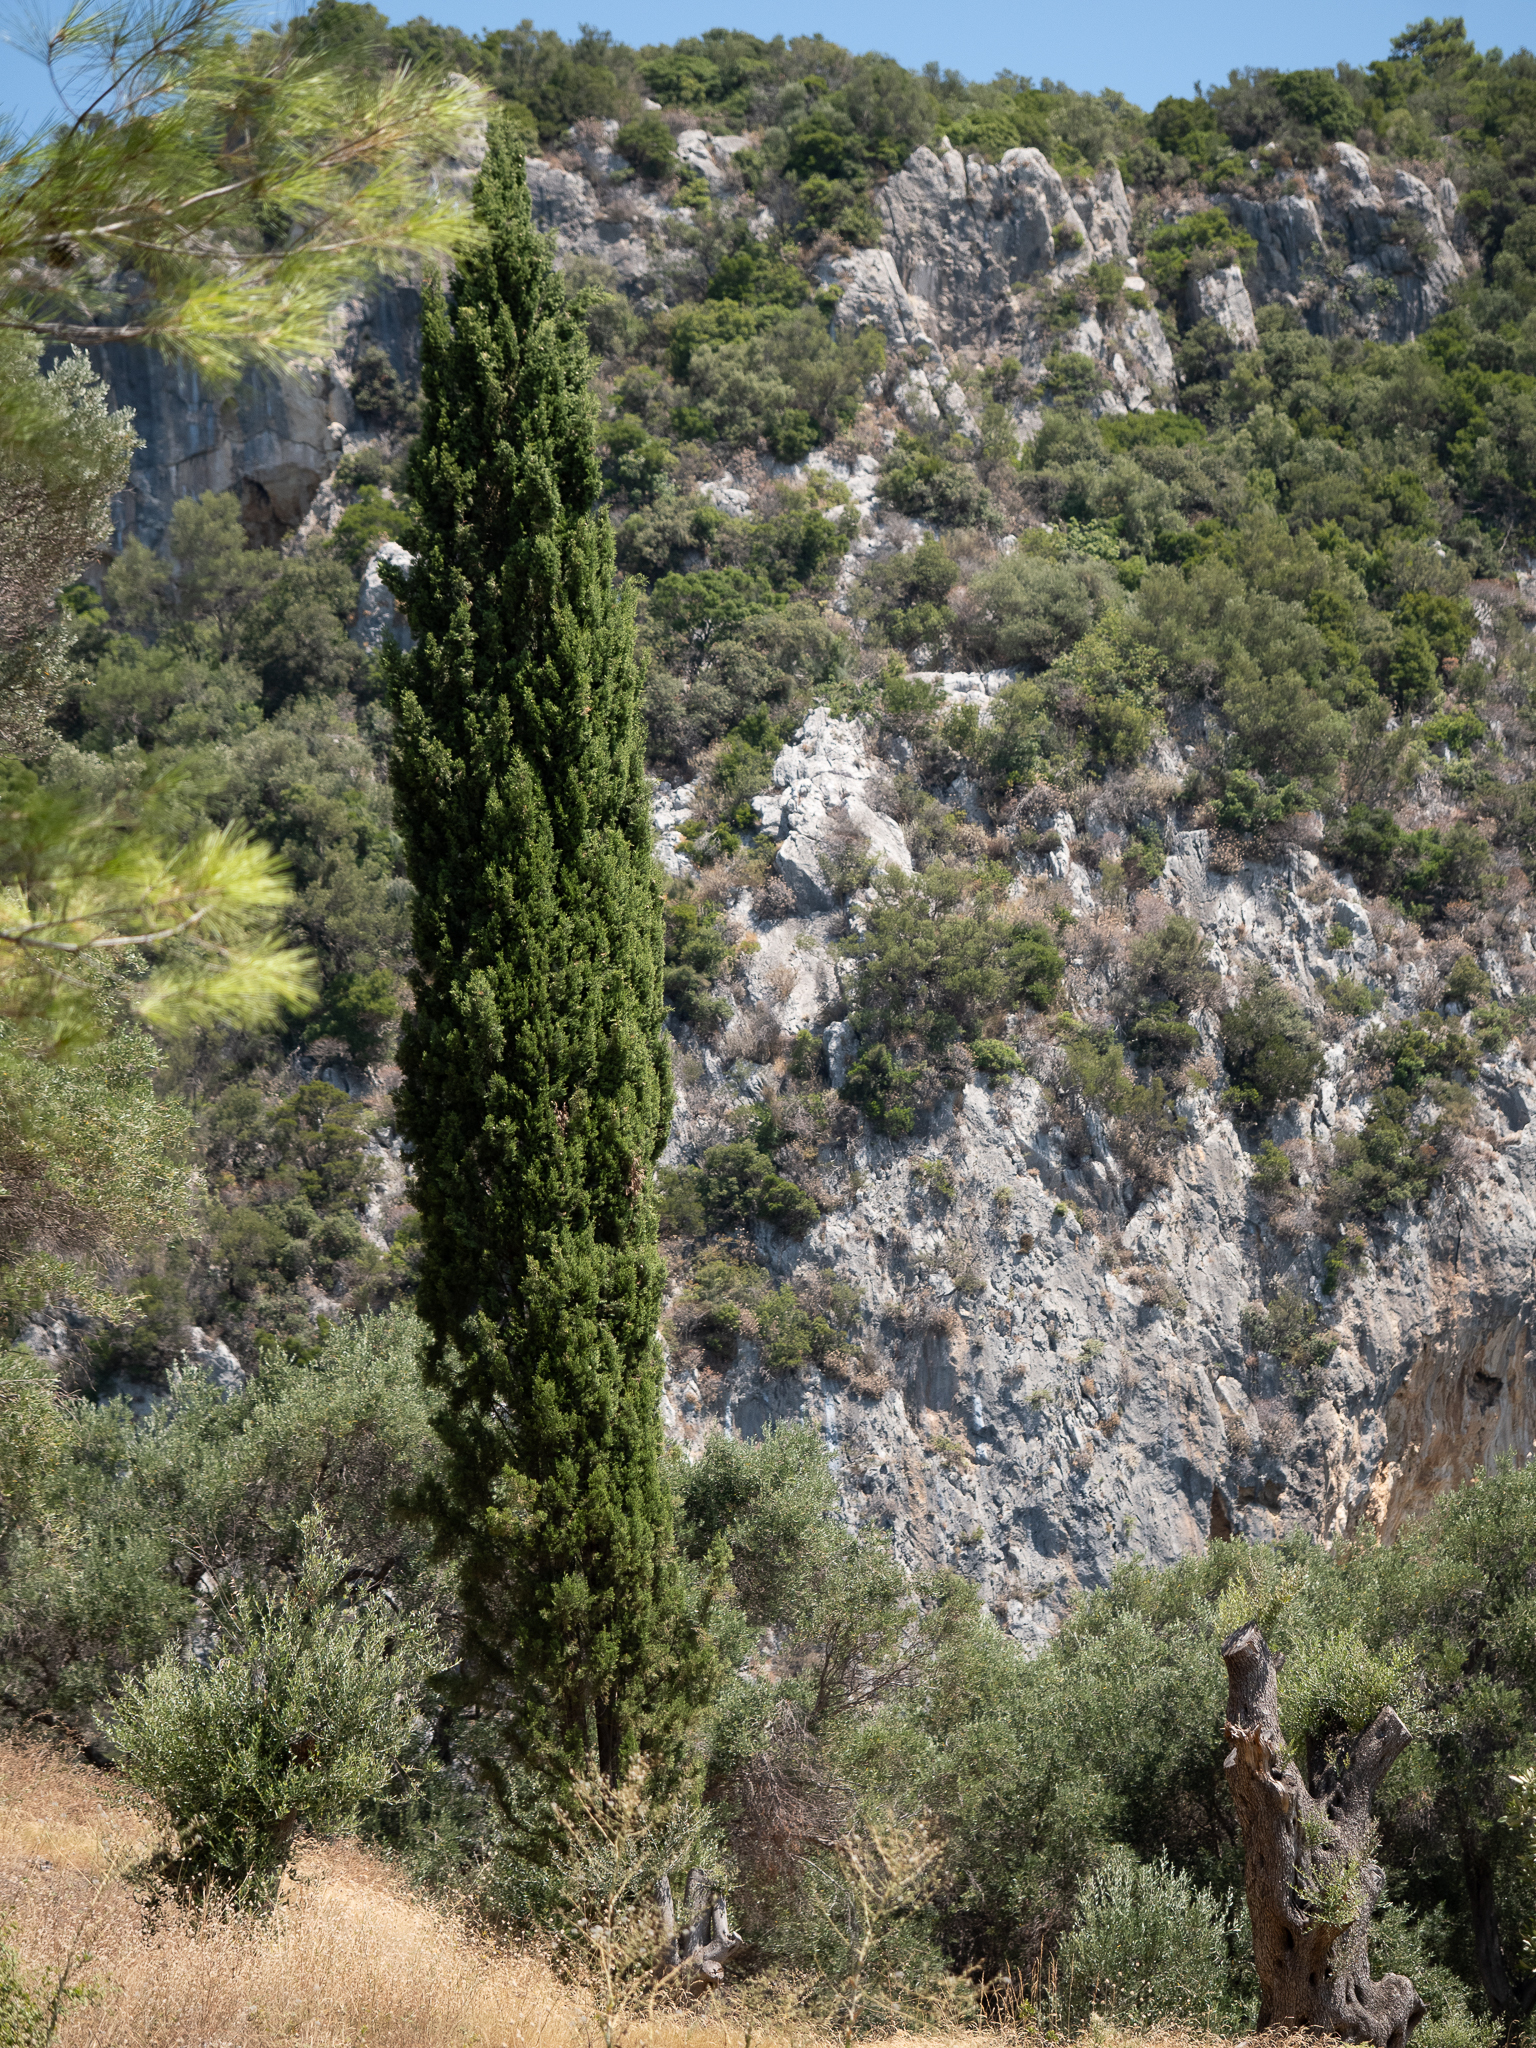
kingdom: Plantae
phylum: Tracheophyta
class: Pinopsida
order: Pinales
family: Cupressaceae
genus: Cupressus
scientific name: Cupressus sempervirens
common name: Italian cypress
